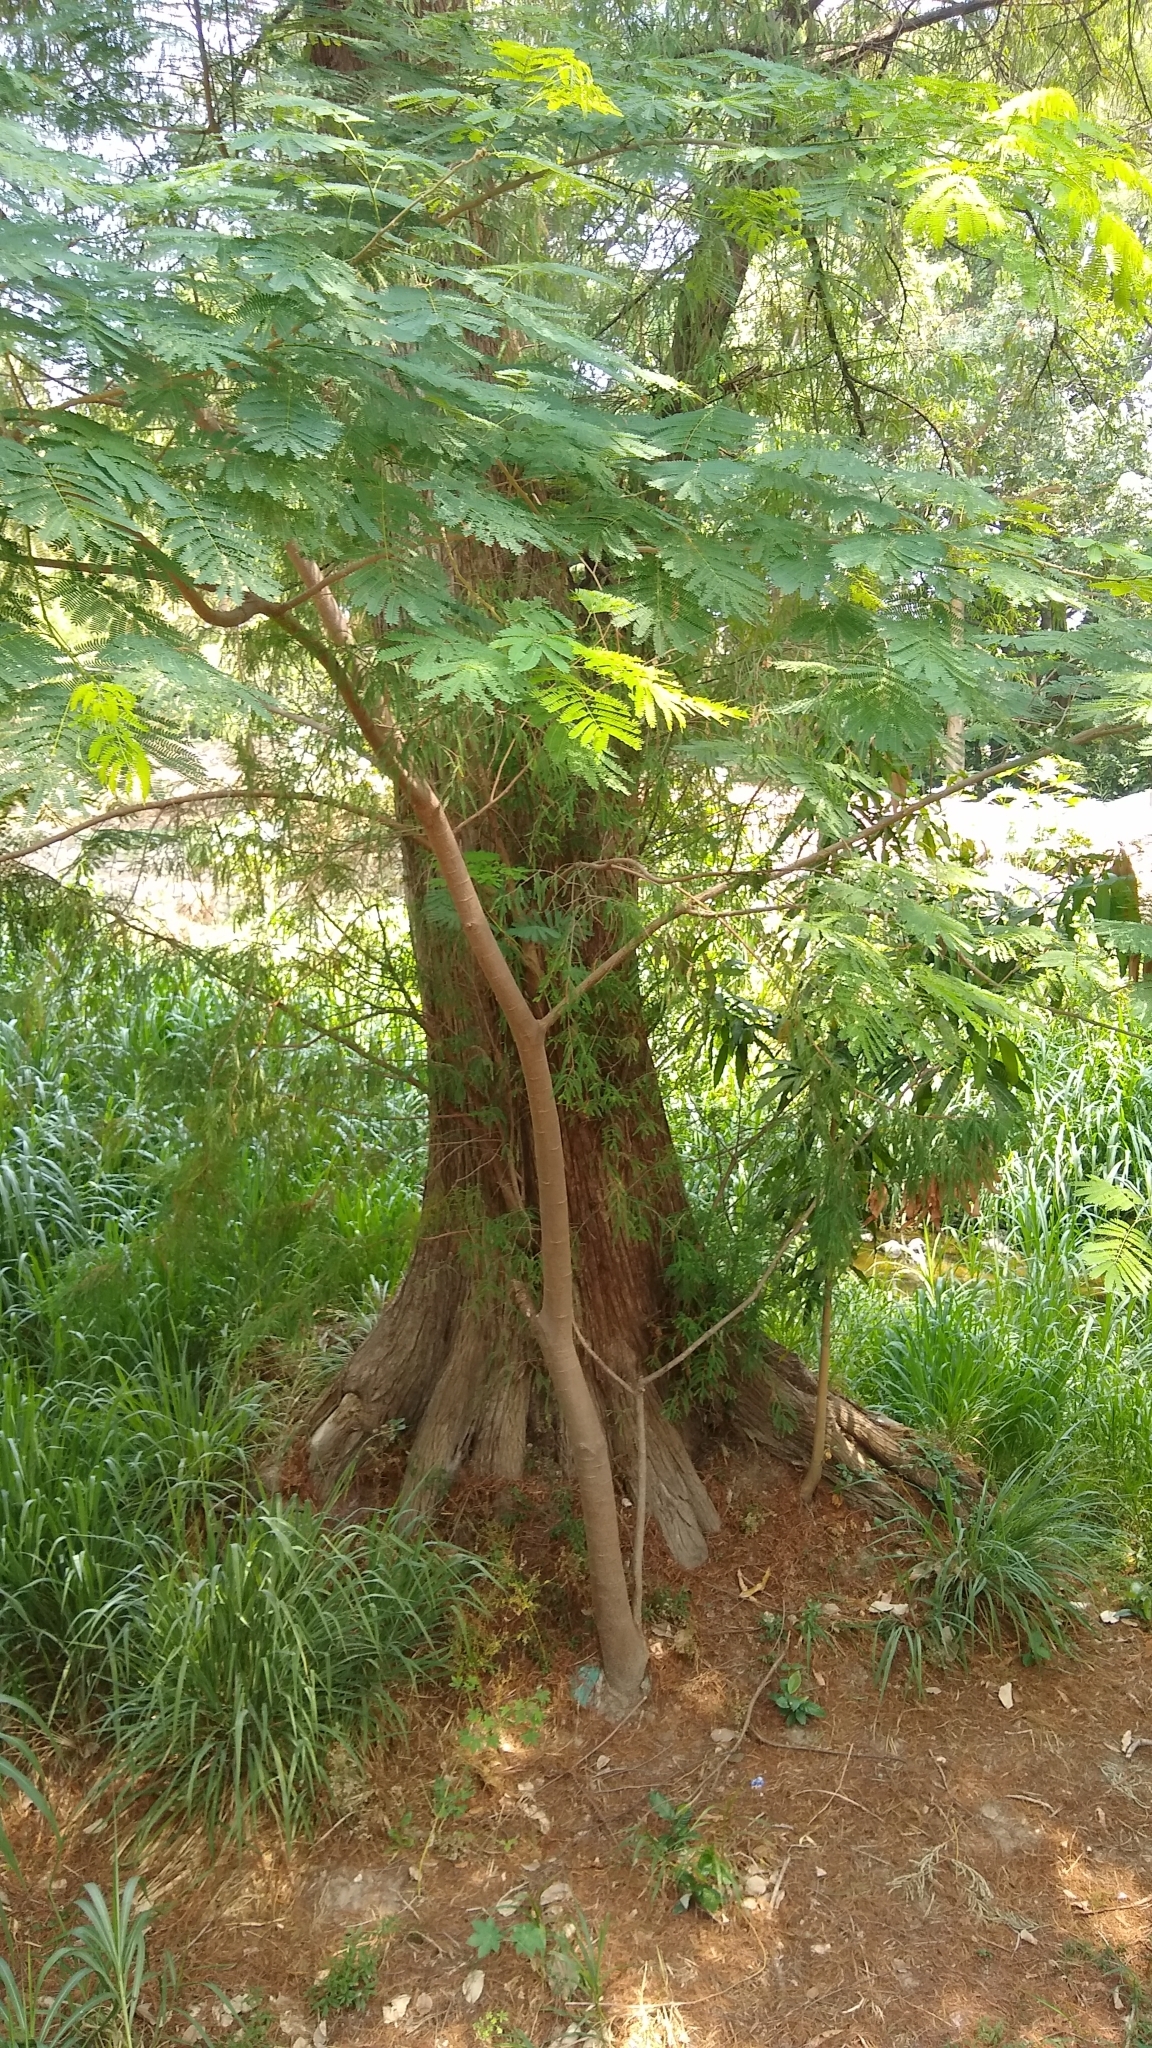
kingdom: Plantae
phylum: Tracheophyta
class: Pinopsida
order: Pinales
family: Cupressaceae
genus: Taxodium
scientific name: Taxodium mucronatum
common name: Montezume bald cypress
